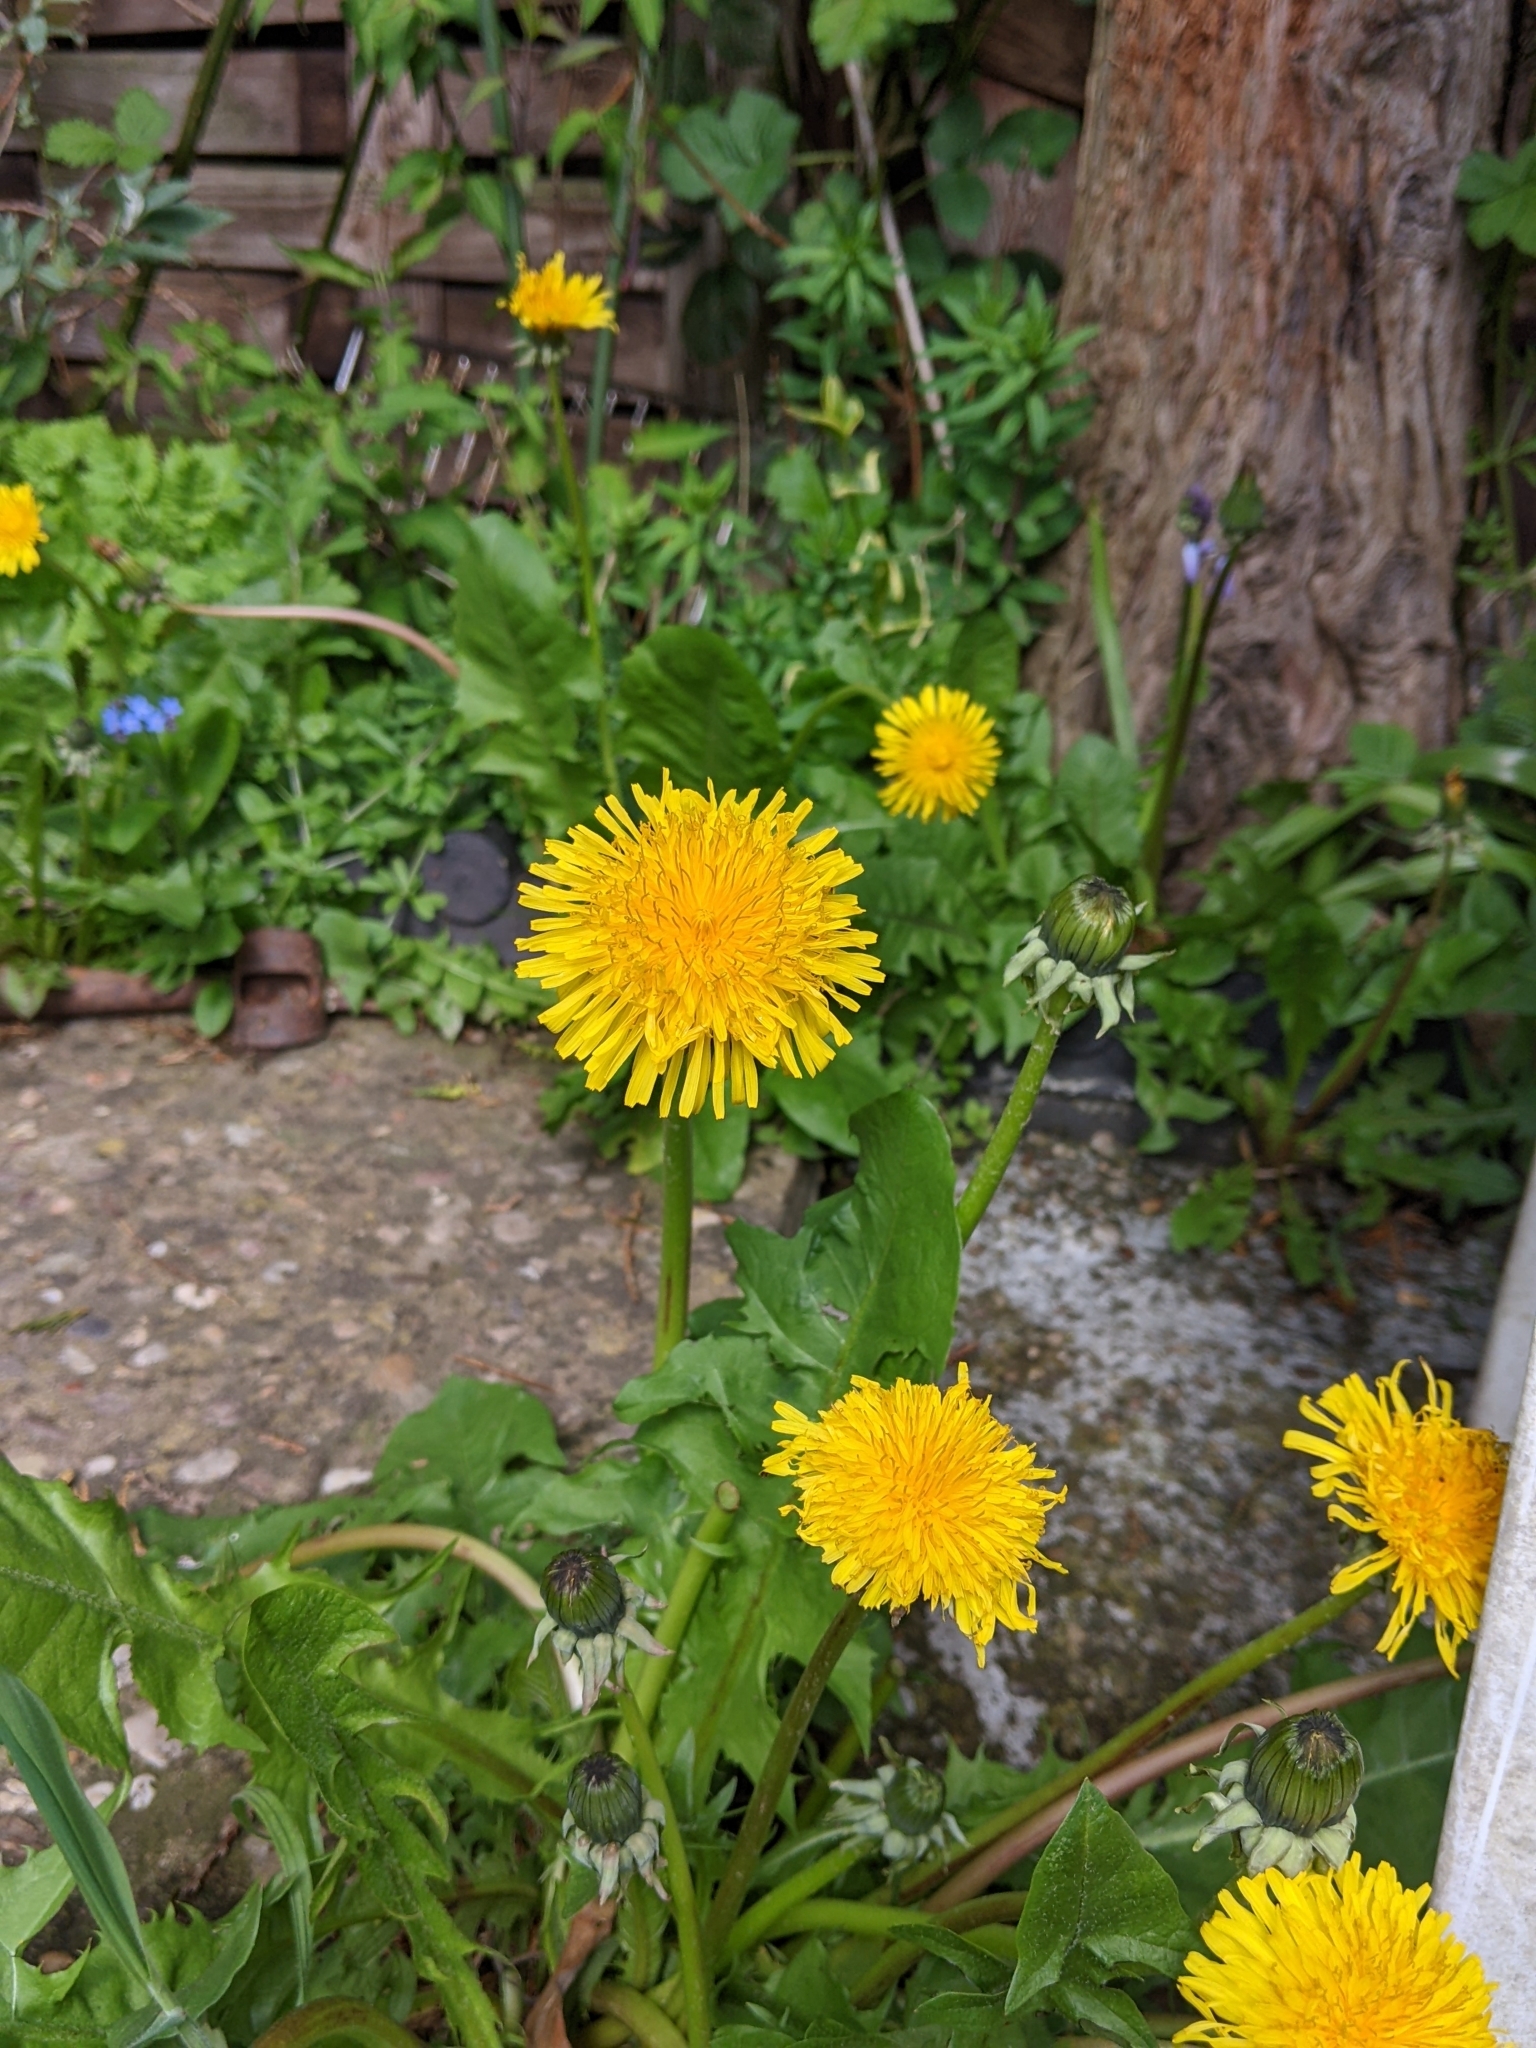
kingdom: Plantae
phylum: Tracheophyta
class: Magnoliopsida
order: Asterales
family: Asteraceae
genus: Taraxacum
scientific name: Taraxacum officinale
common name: Common dandelion
